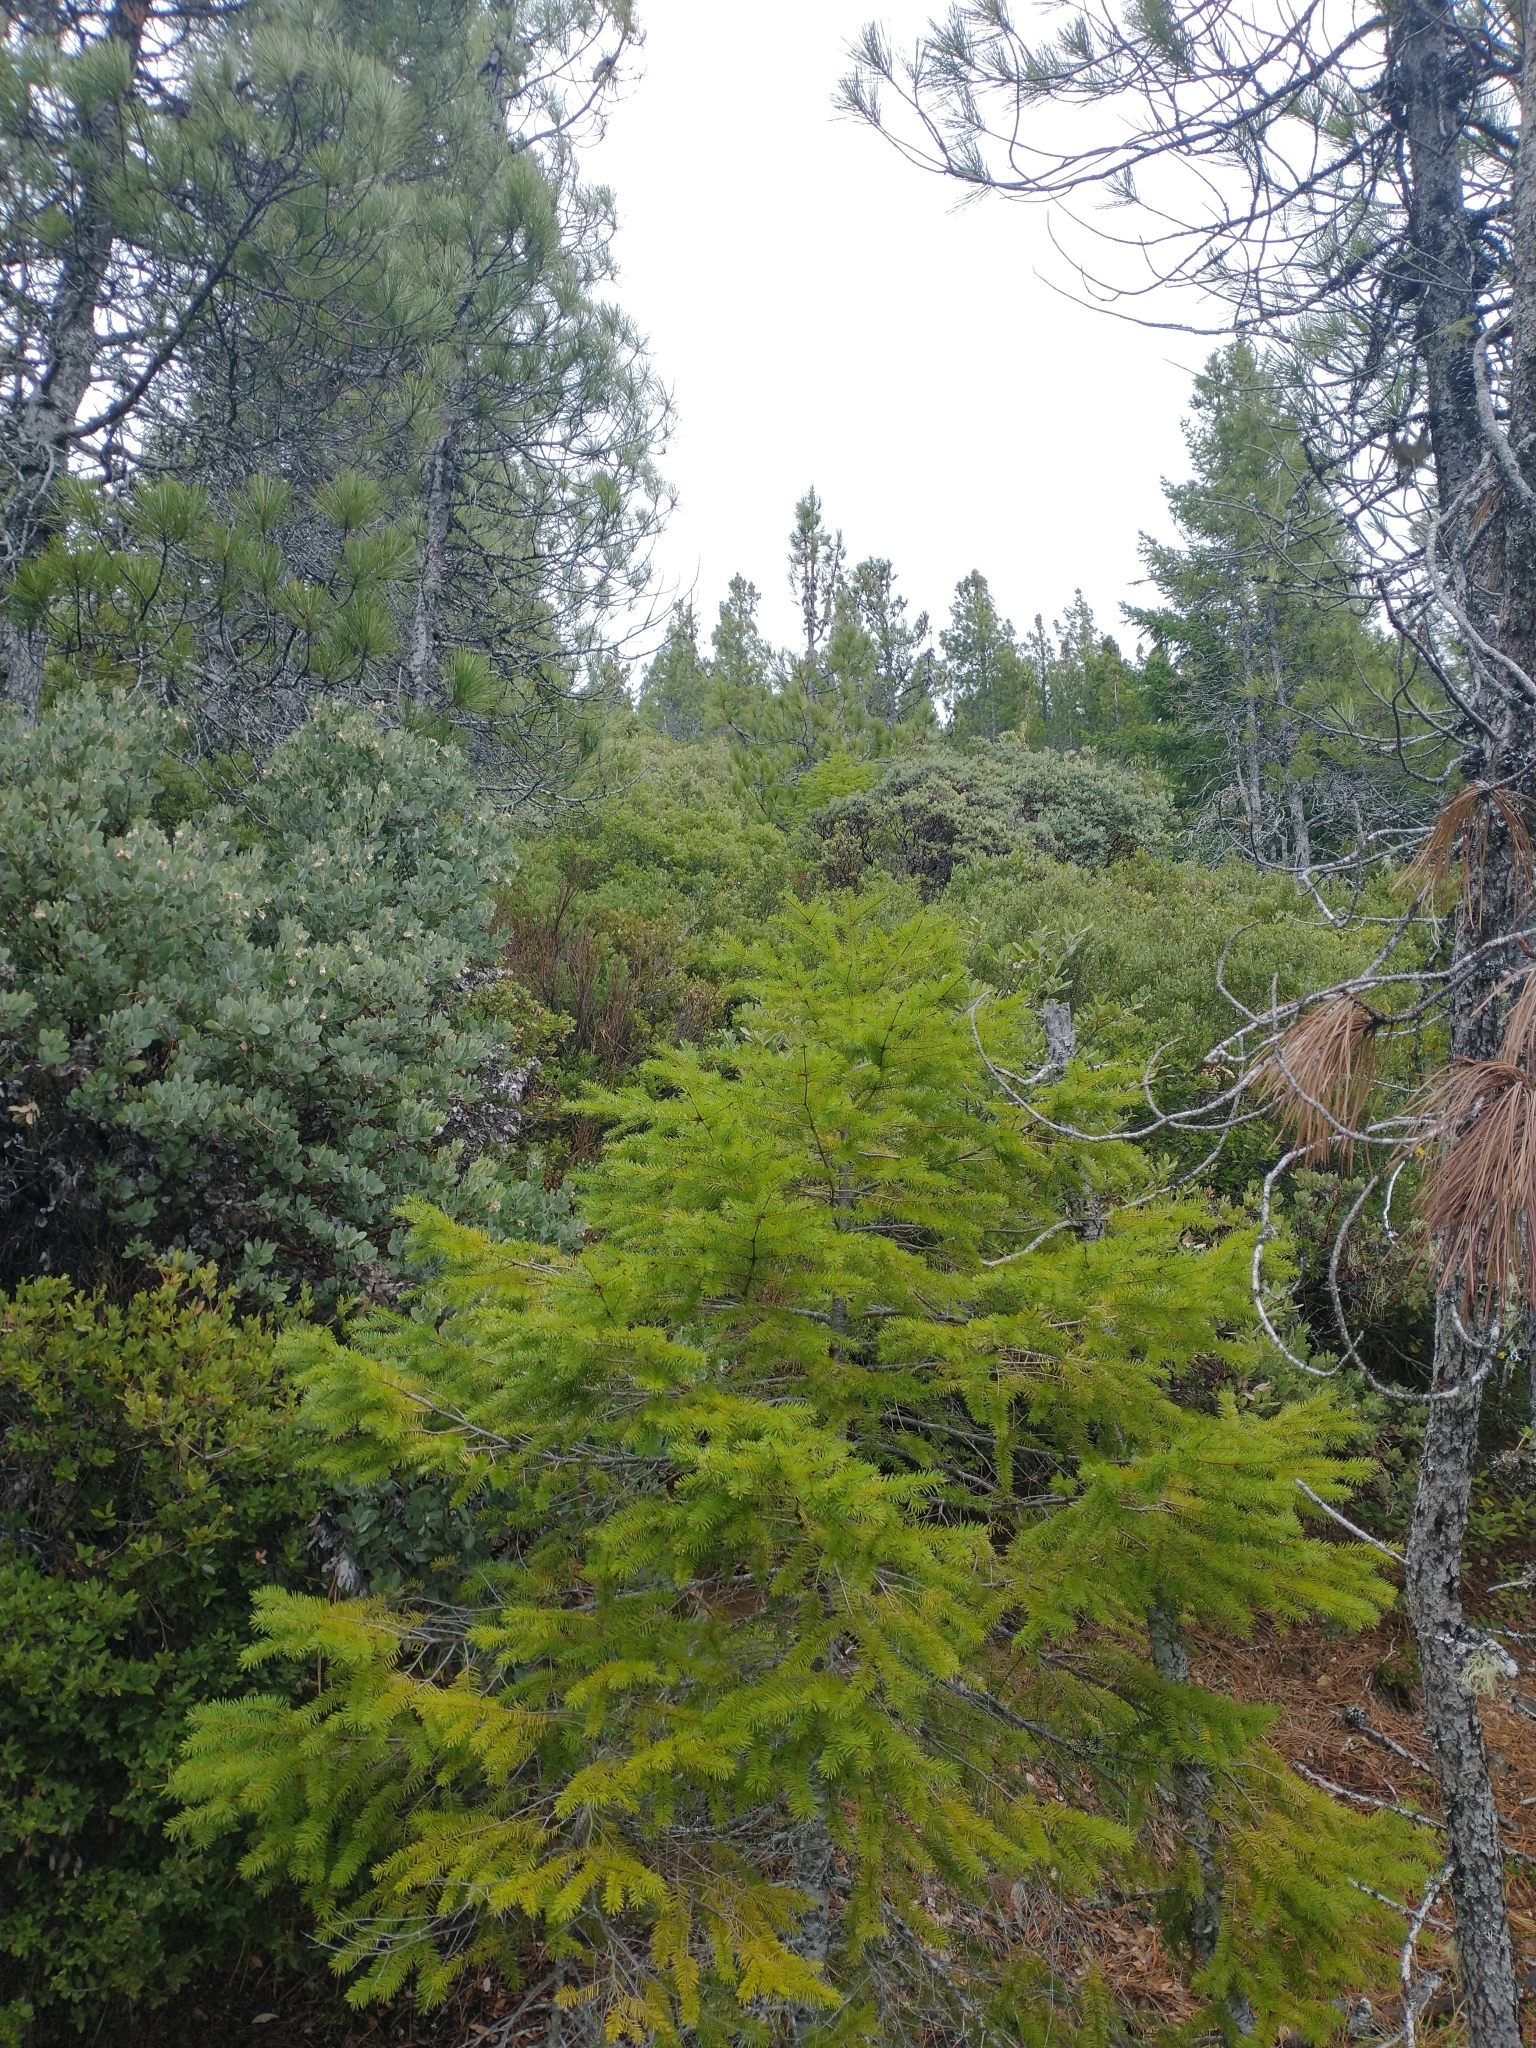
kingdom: Plantae
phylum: Tracheophyta
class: Pinopsida
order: Pinales
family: Pinaceae
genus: Pseudotsuga
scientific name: Pseudotsuga menziesii
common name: Douglas fir
